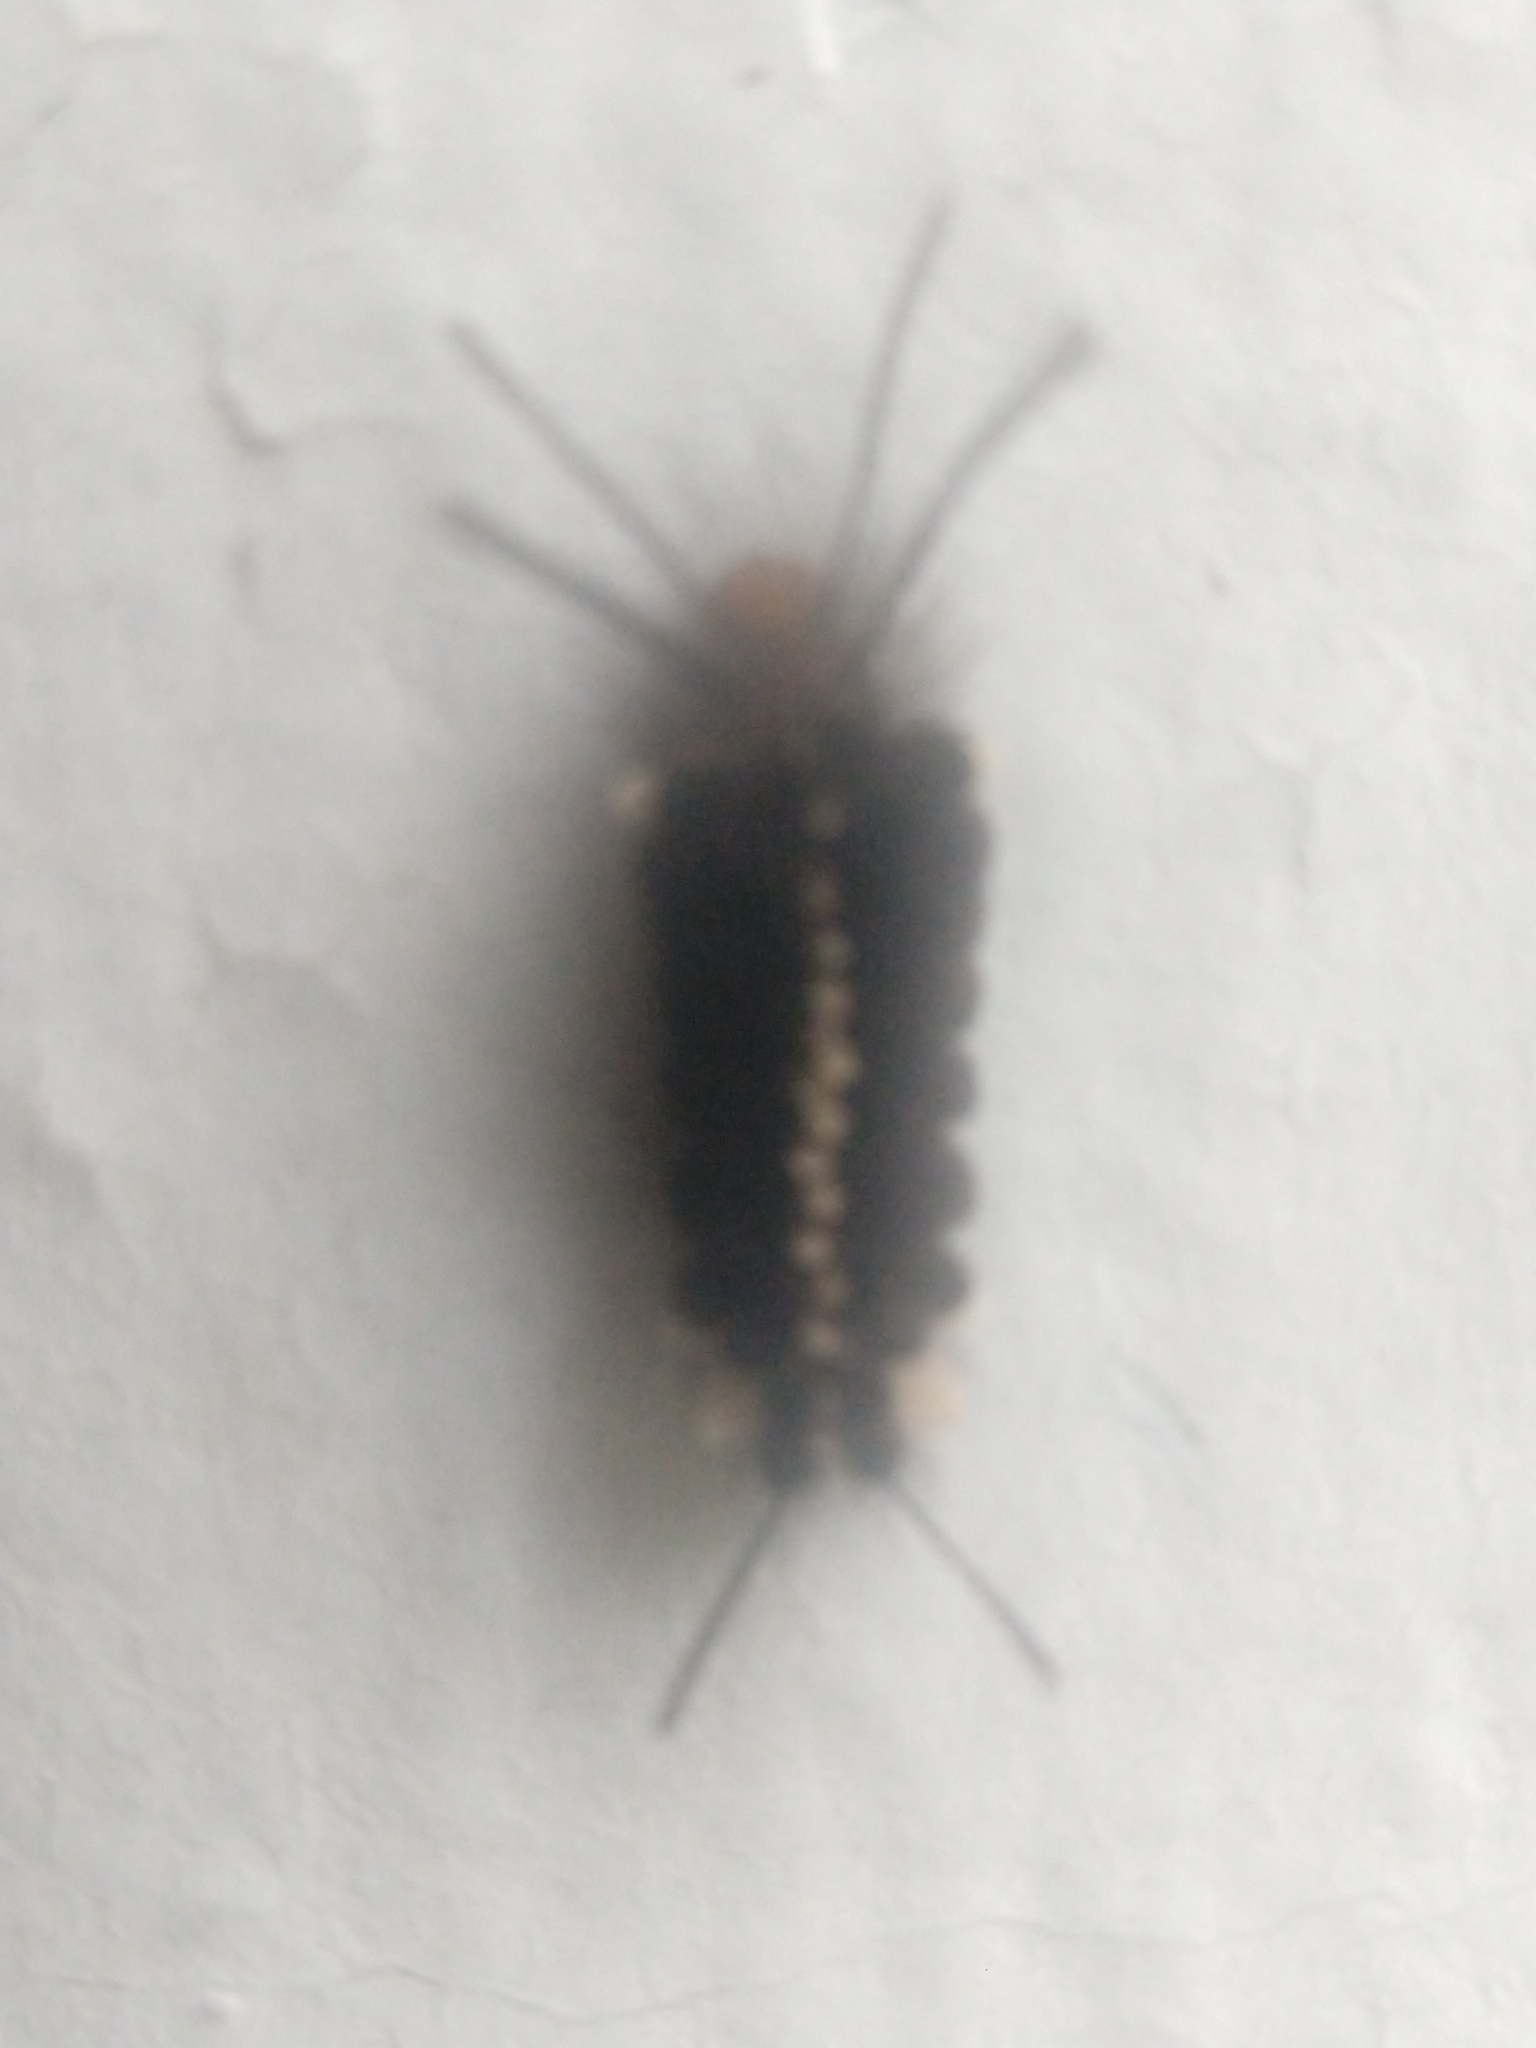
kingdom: Animalia
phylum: Arthropoda
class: Insecta
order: Lepidoptera
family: Erebidae
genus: Autochloris
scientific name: Autochloris jansonis
